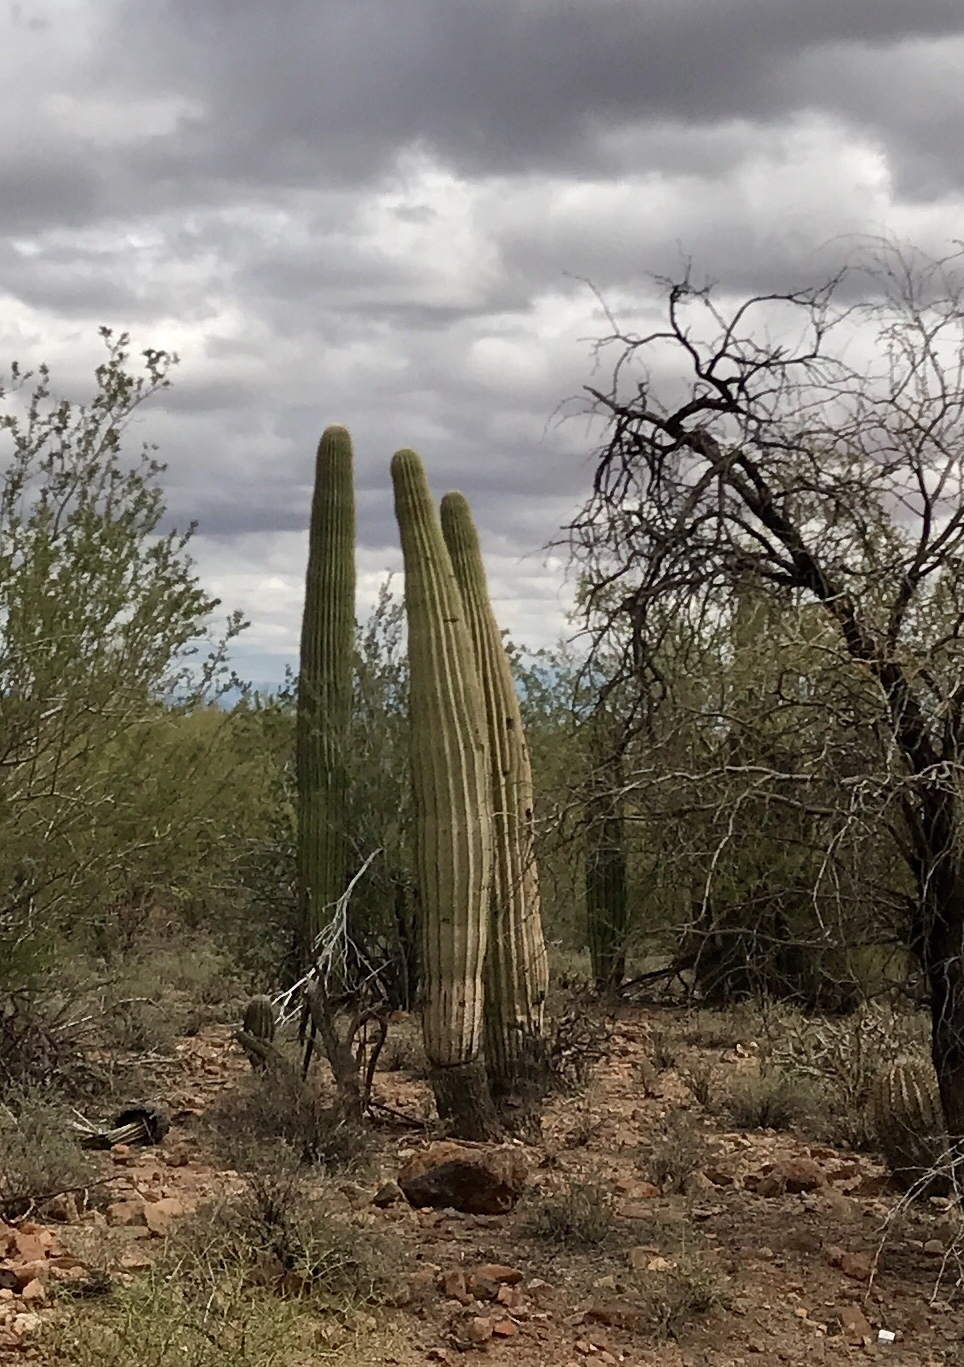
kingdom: Plantae
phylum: Tracheophyta
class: Magnoliopsida
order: Caryophyllales
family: Cactaceae
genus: Carnegiea
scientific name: Carnegiea gigantea
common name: Saguaro
